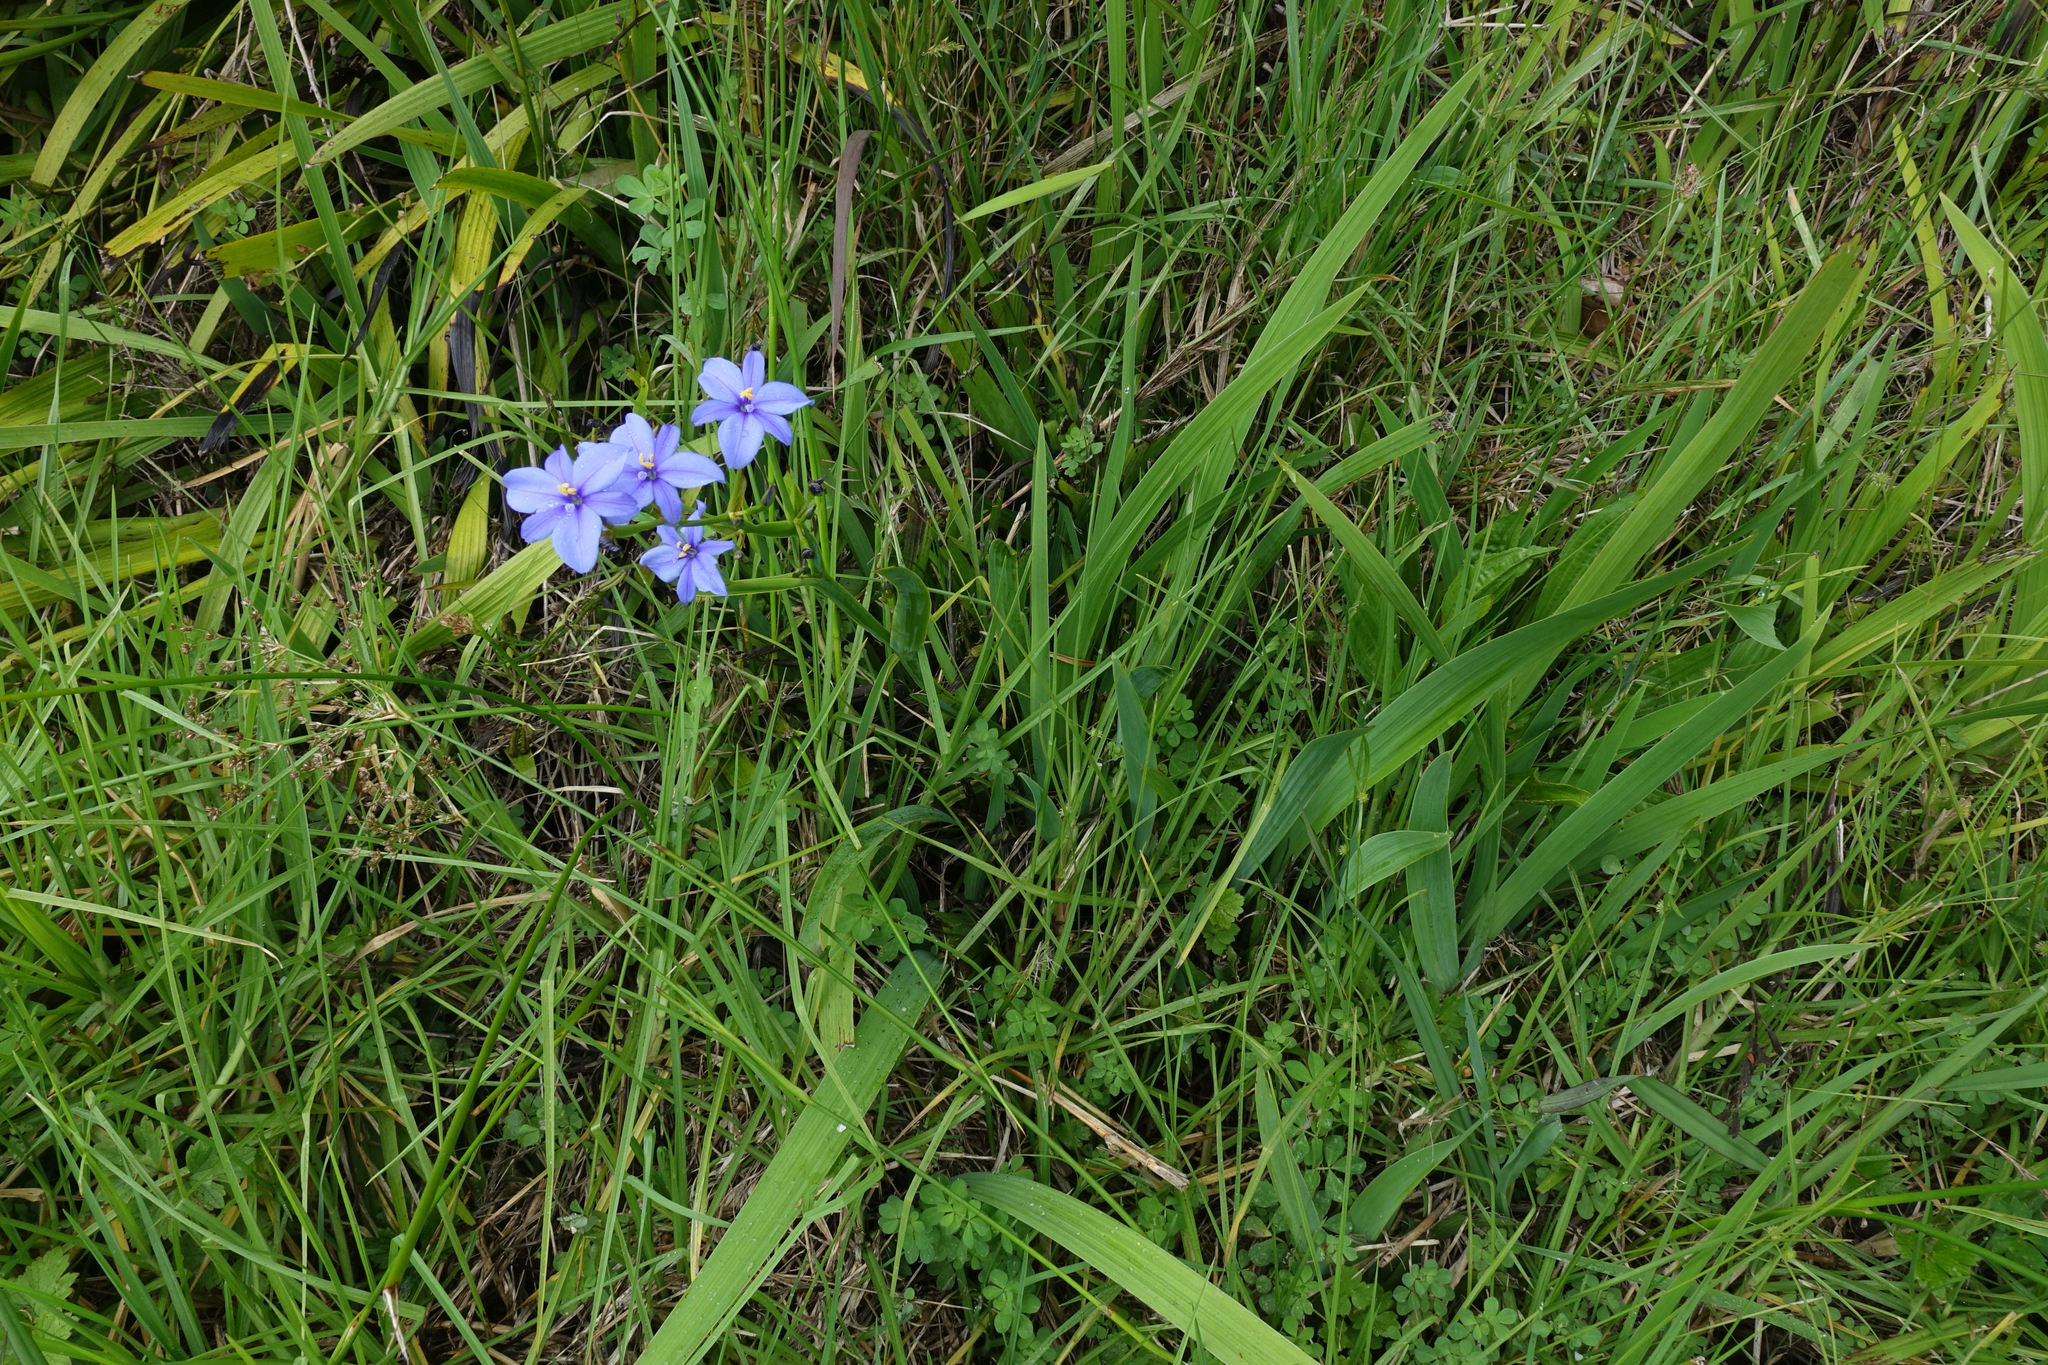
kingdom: Plantae
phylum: Tracheophyta
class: Liliopsida
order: Asparagales
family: Iridaceae
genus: Aristea
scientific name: Aristea ecklonii
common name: Blue corn-lily
